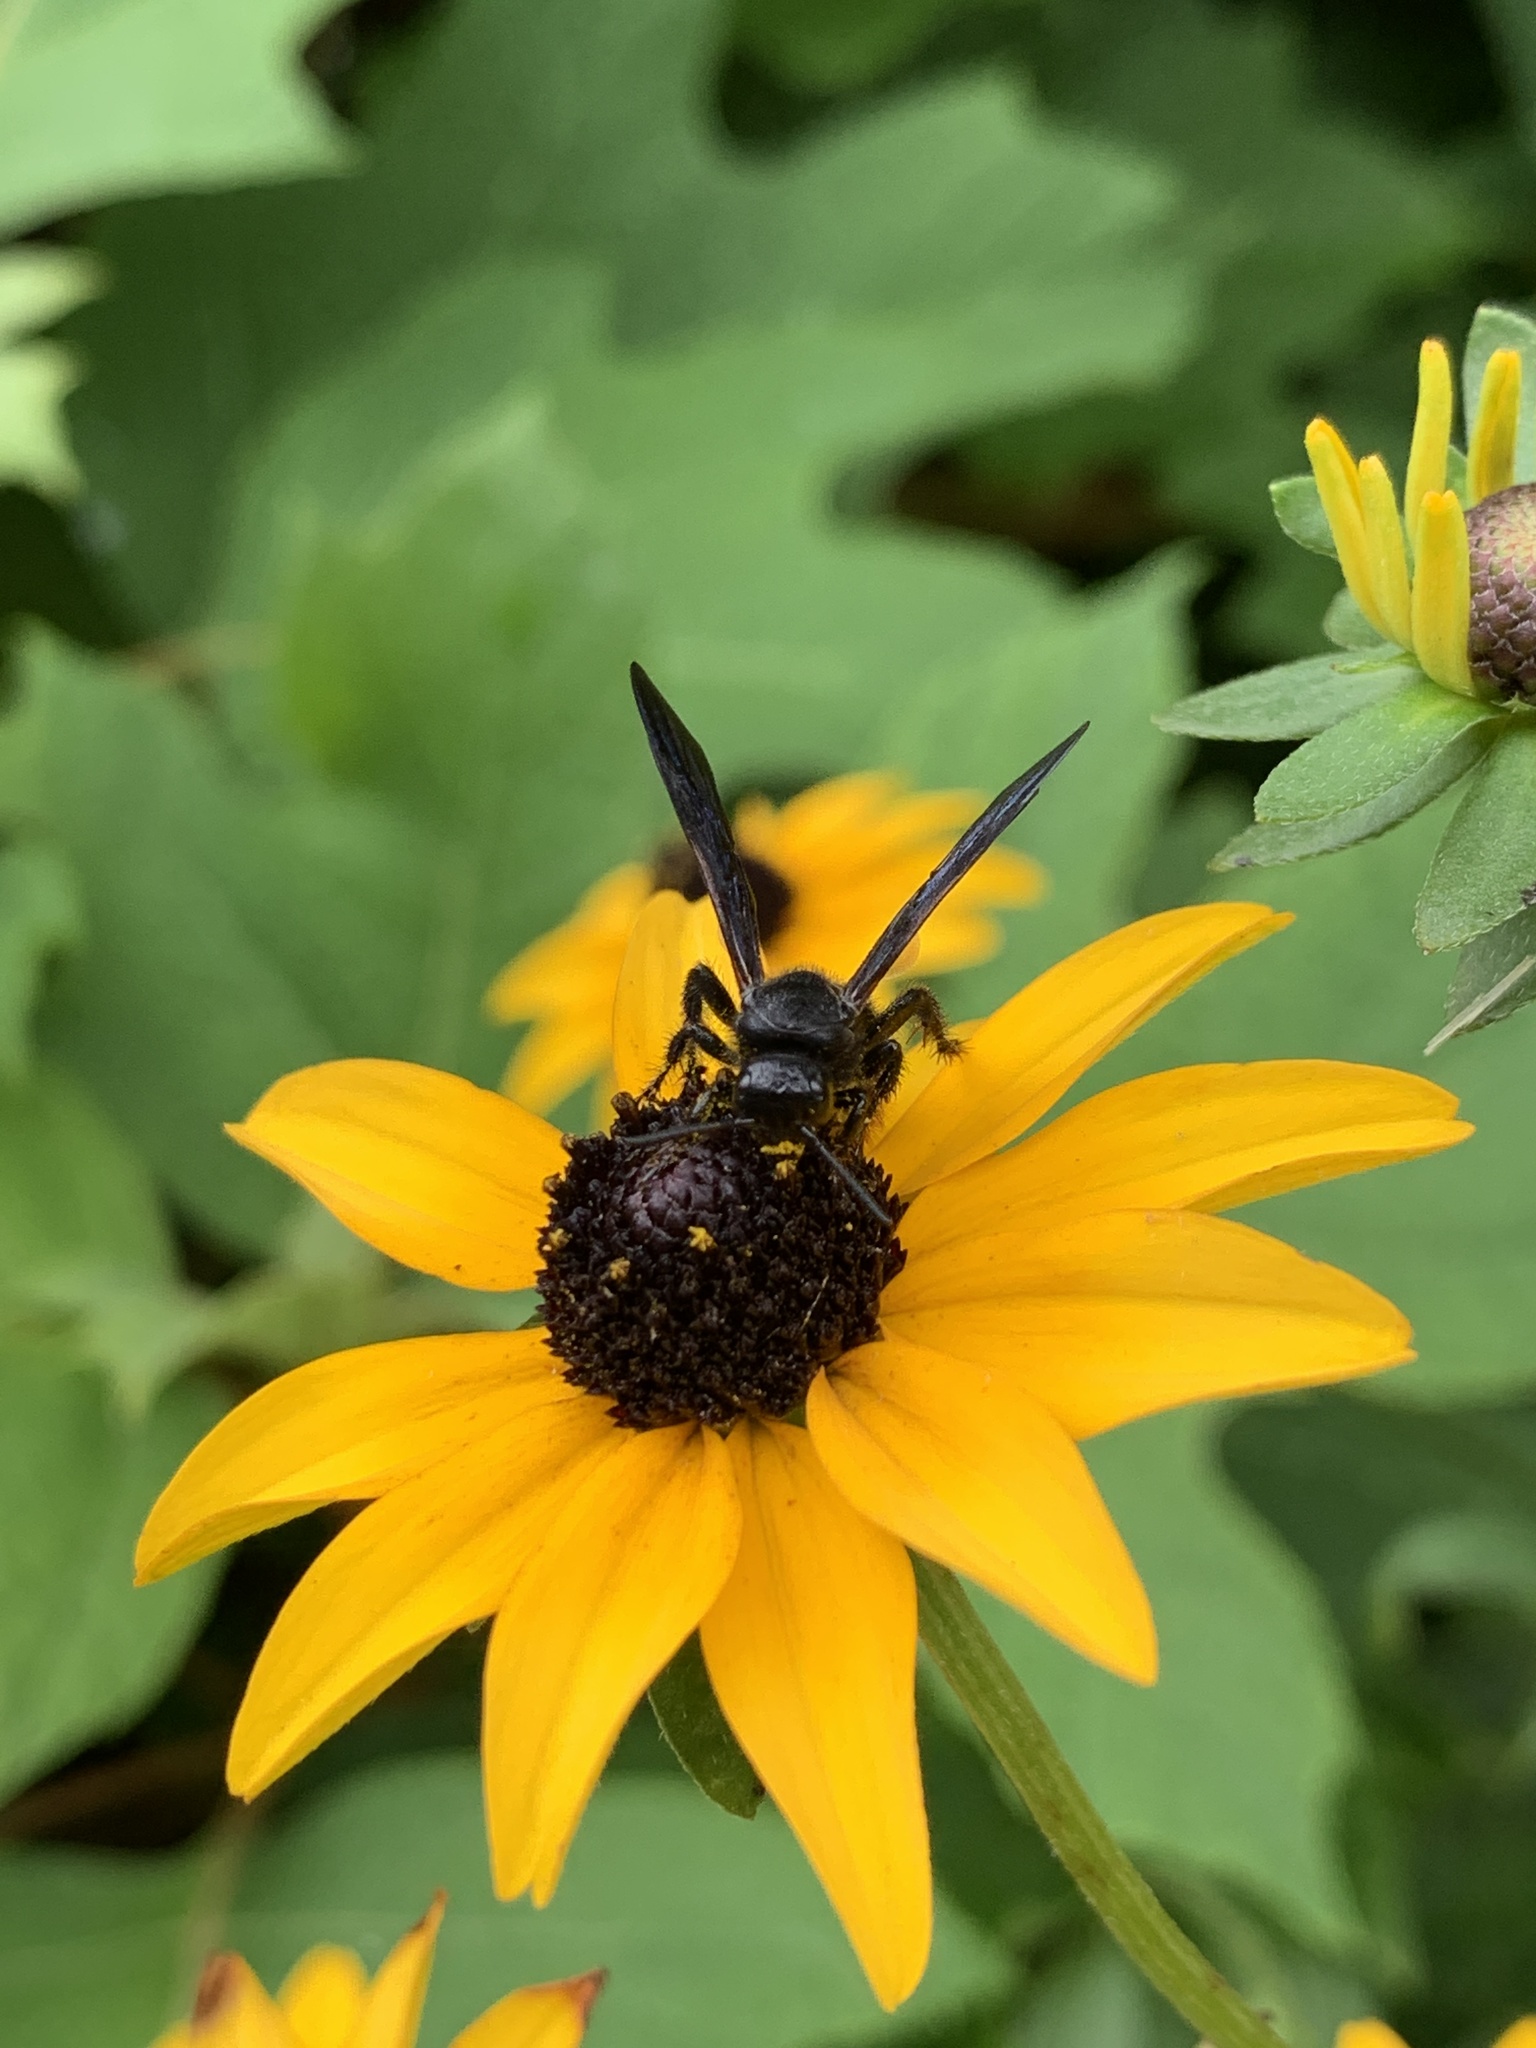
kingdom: Animalia
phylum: Arthropoda
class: Insecta
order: Hymenoptera
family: Scoliidae
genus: Scolia
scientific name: Scolia dubia
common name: Blue-winged scoliid wasp
